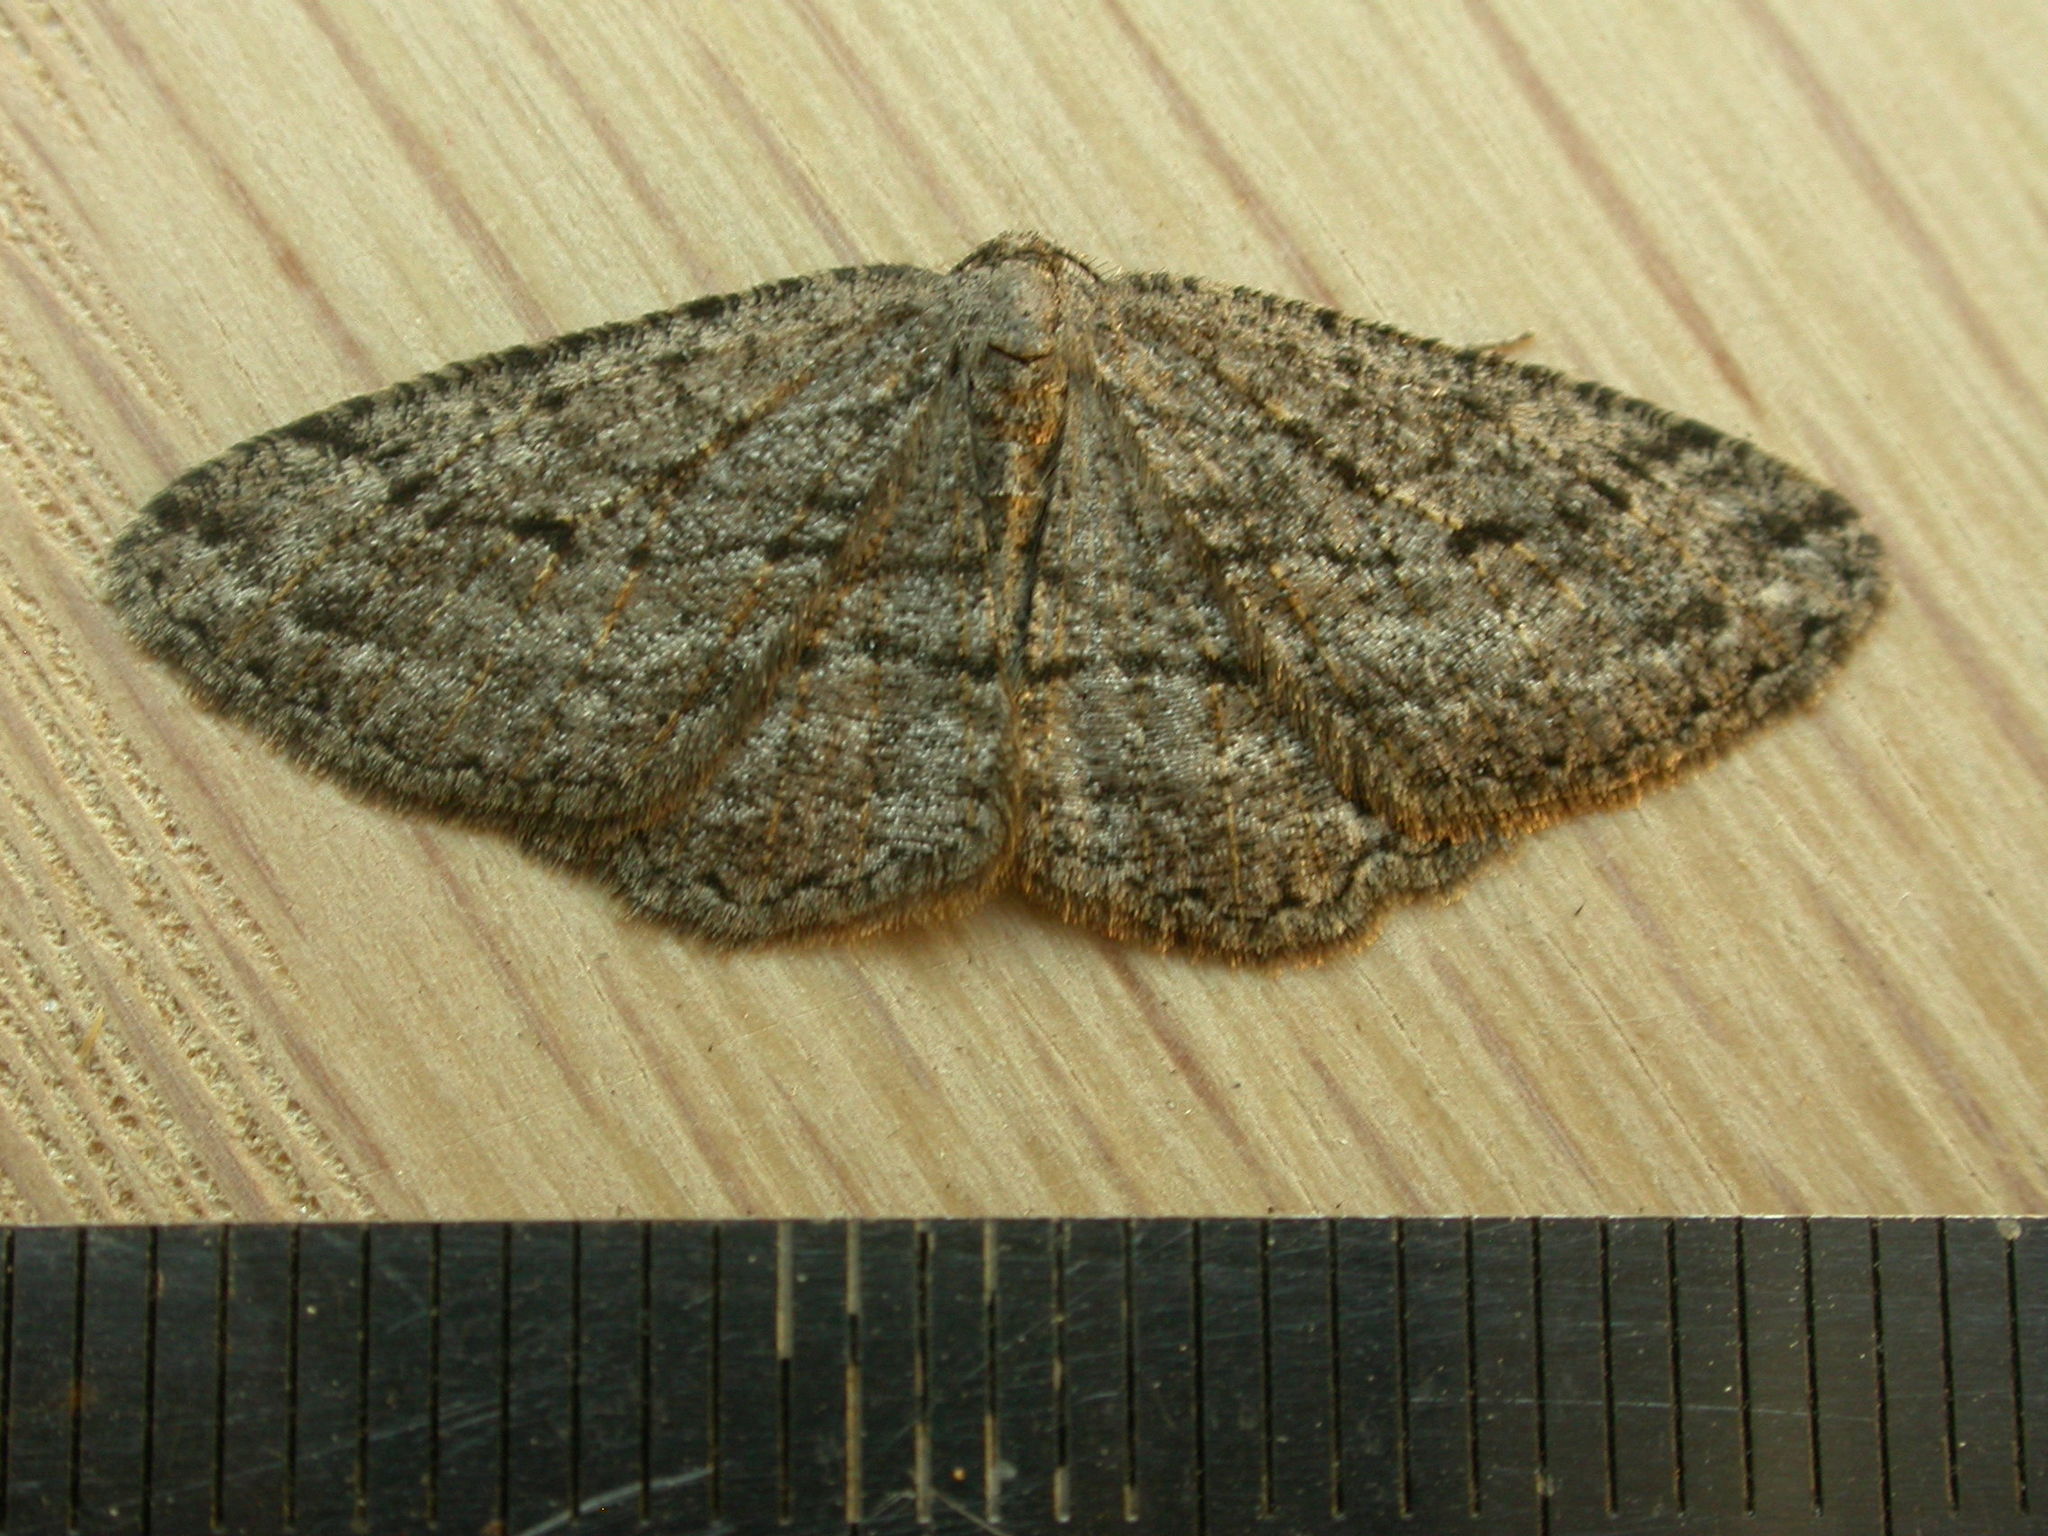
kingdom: Animalia
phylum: Arthropoda
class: Insecta
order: Lepidoptera
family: Geometridae
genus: Zermizinga
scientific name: Zermizinga sinuata
